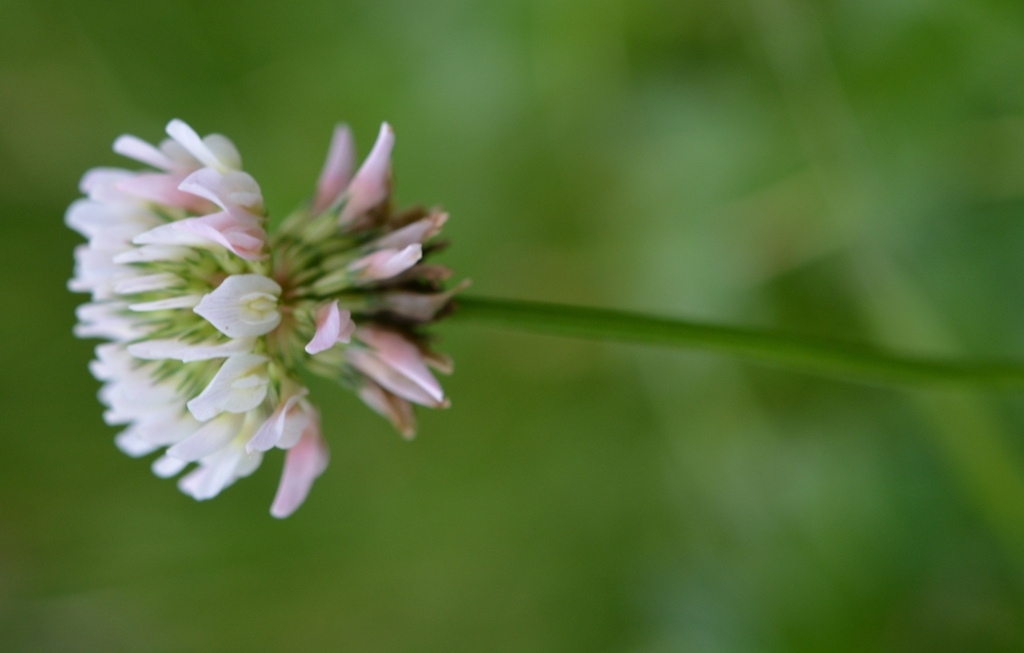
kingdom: Plantae
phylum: Tracheophyta
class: Magnoliopsida
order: Fabales
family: Fabaceae
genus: Trifolium
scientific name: Trifolium repens
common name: White clover
